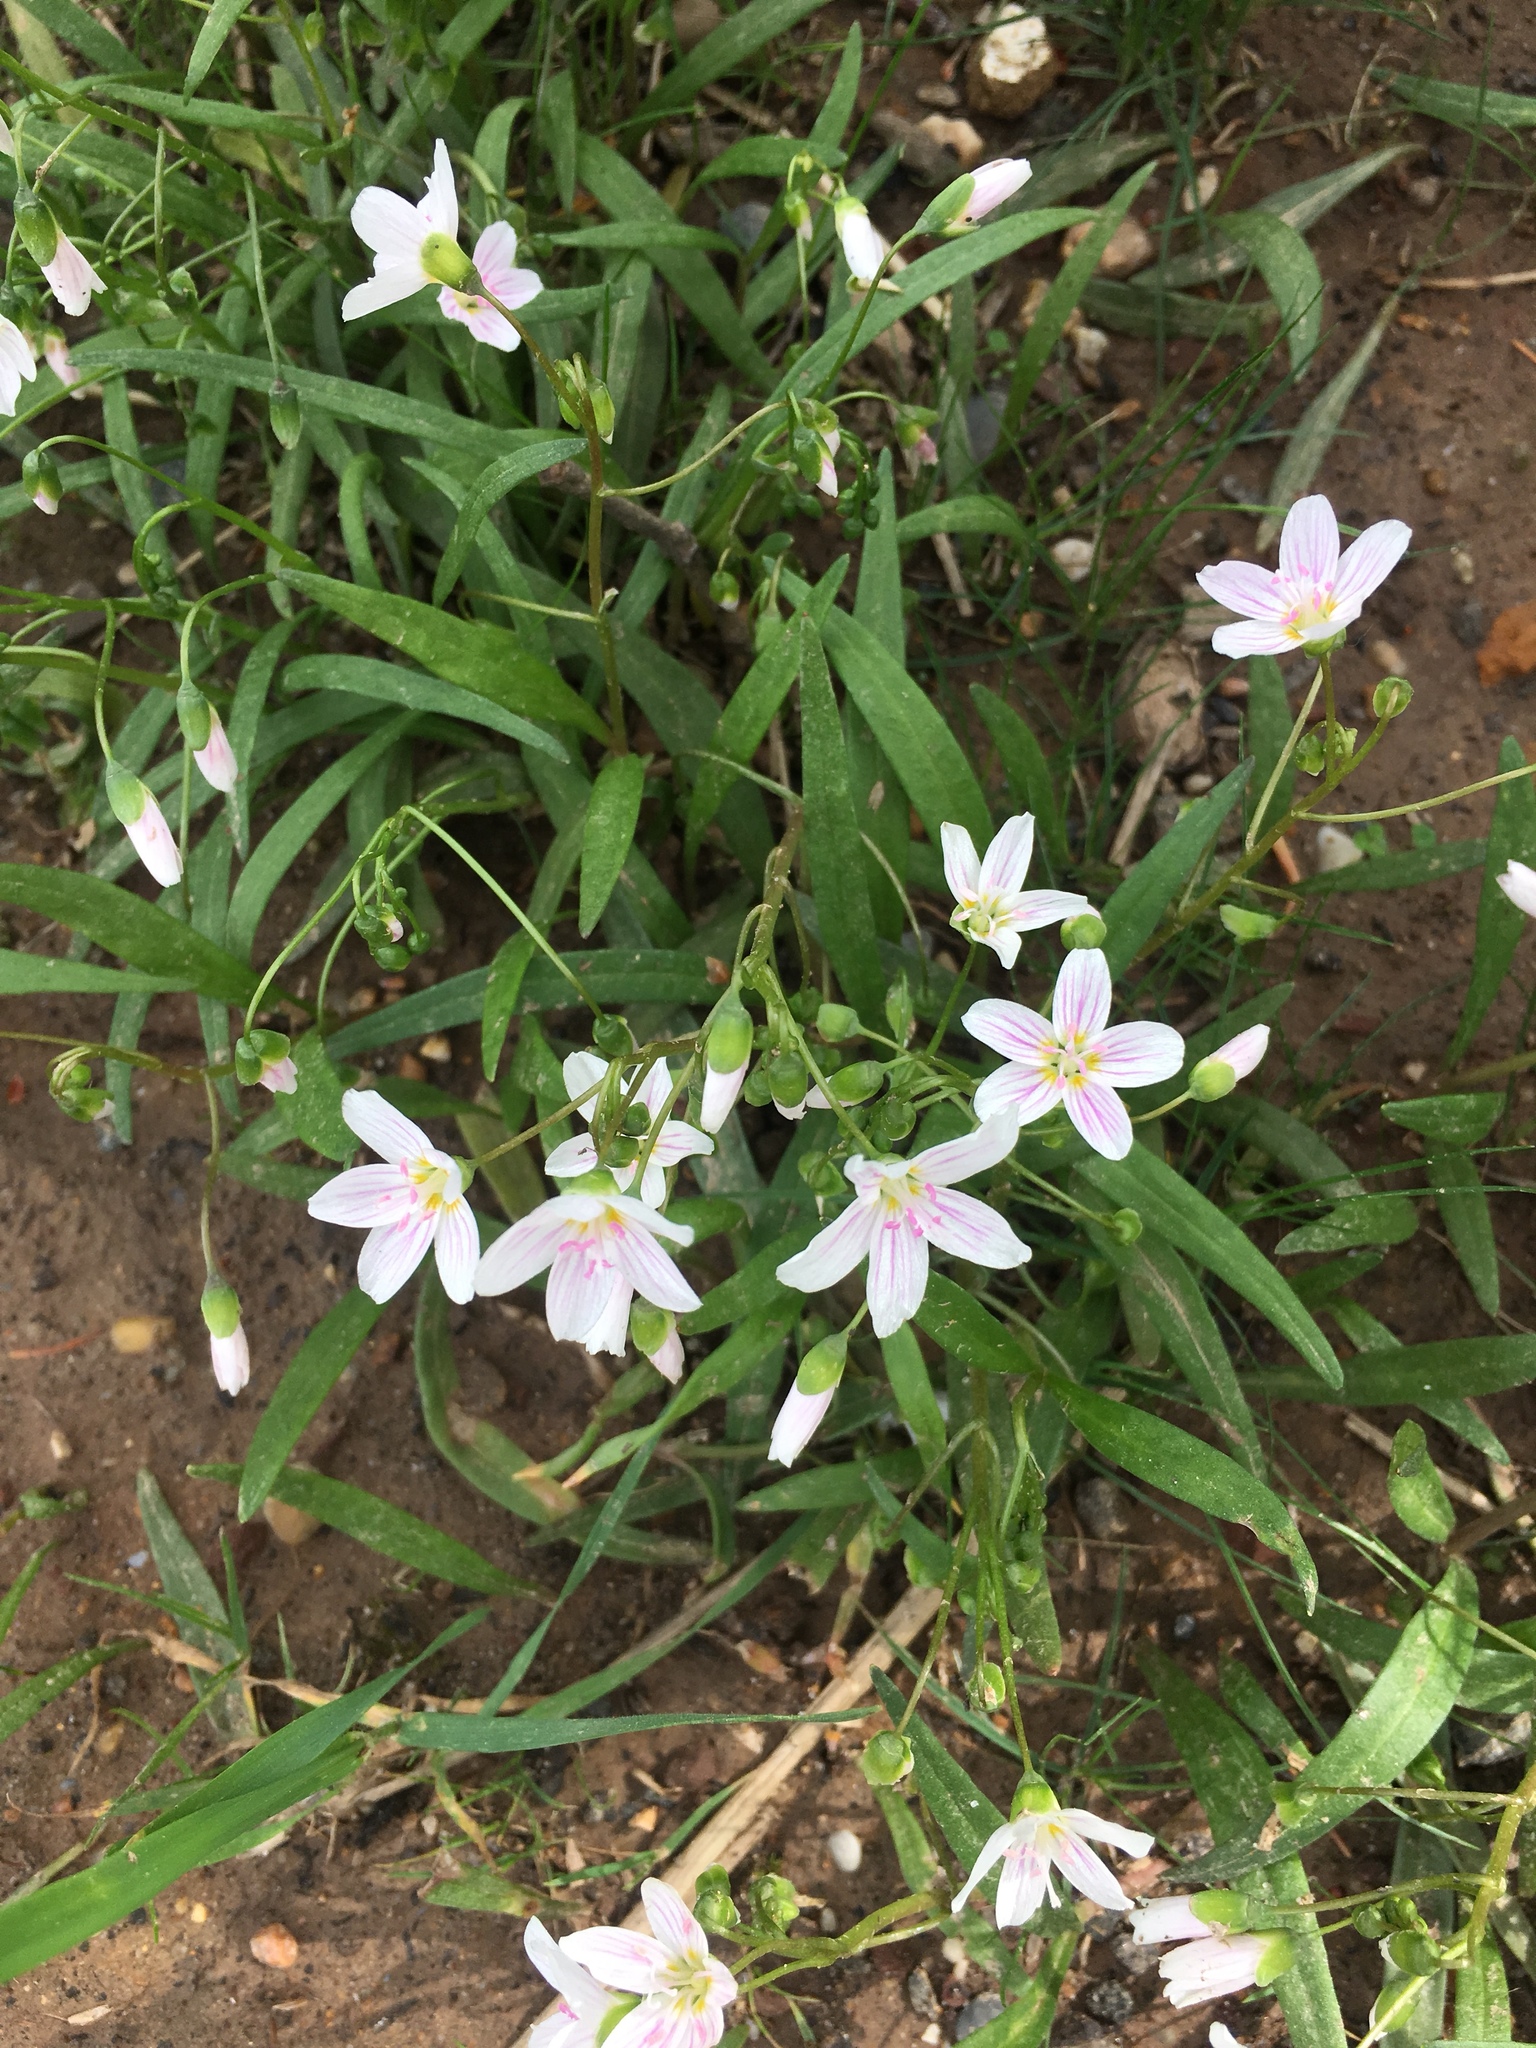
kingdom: Plantae
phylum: Tracheophyta
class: Magnoliopsida
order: Caryophyllales
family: Montiaceae
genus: Claytonia
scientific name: Claytonia virginica
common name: Virginia springbeauty
